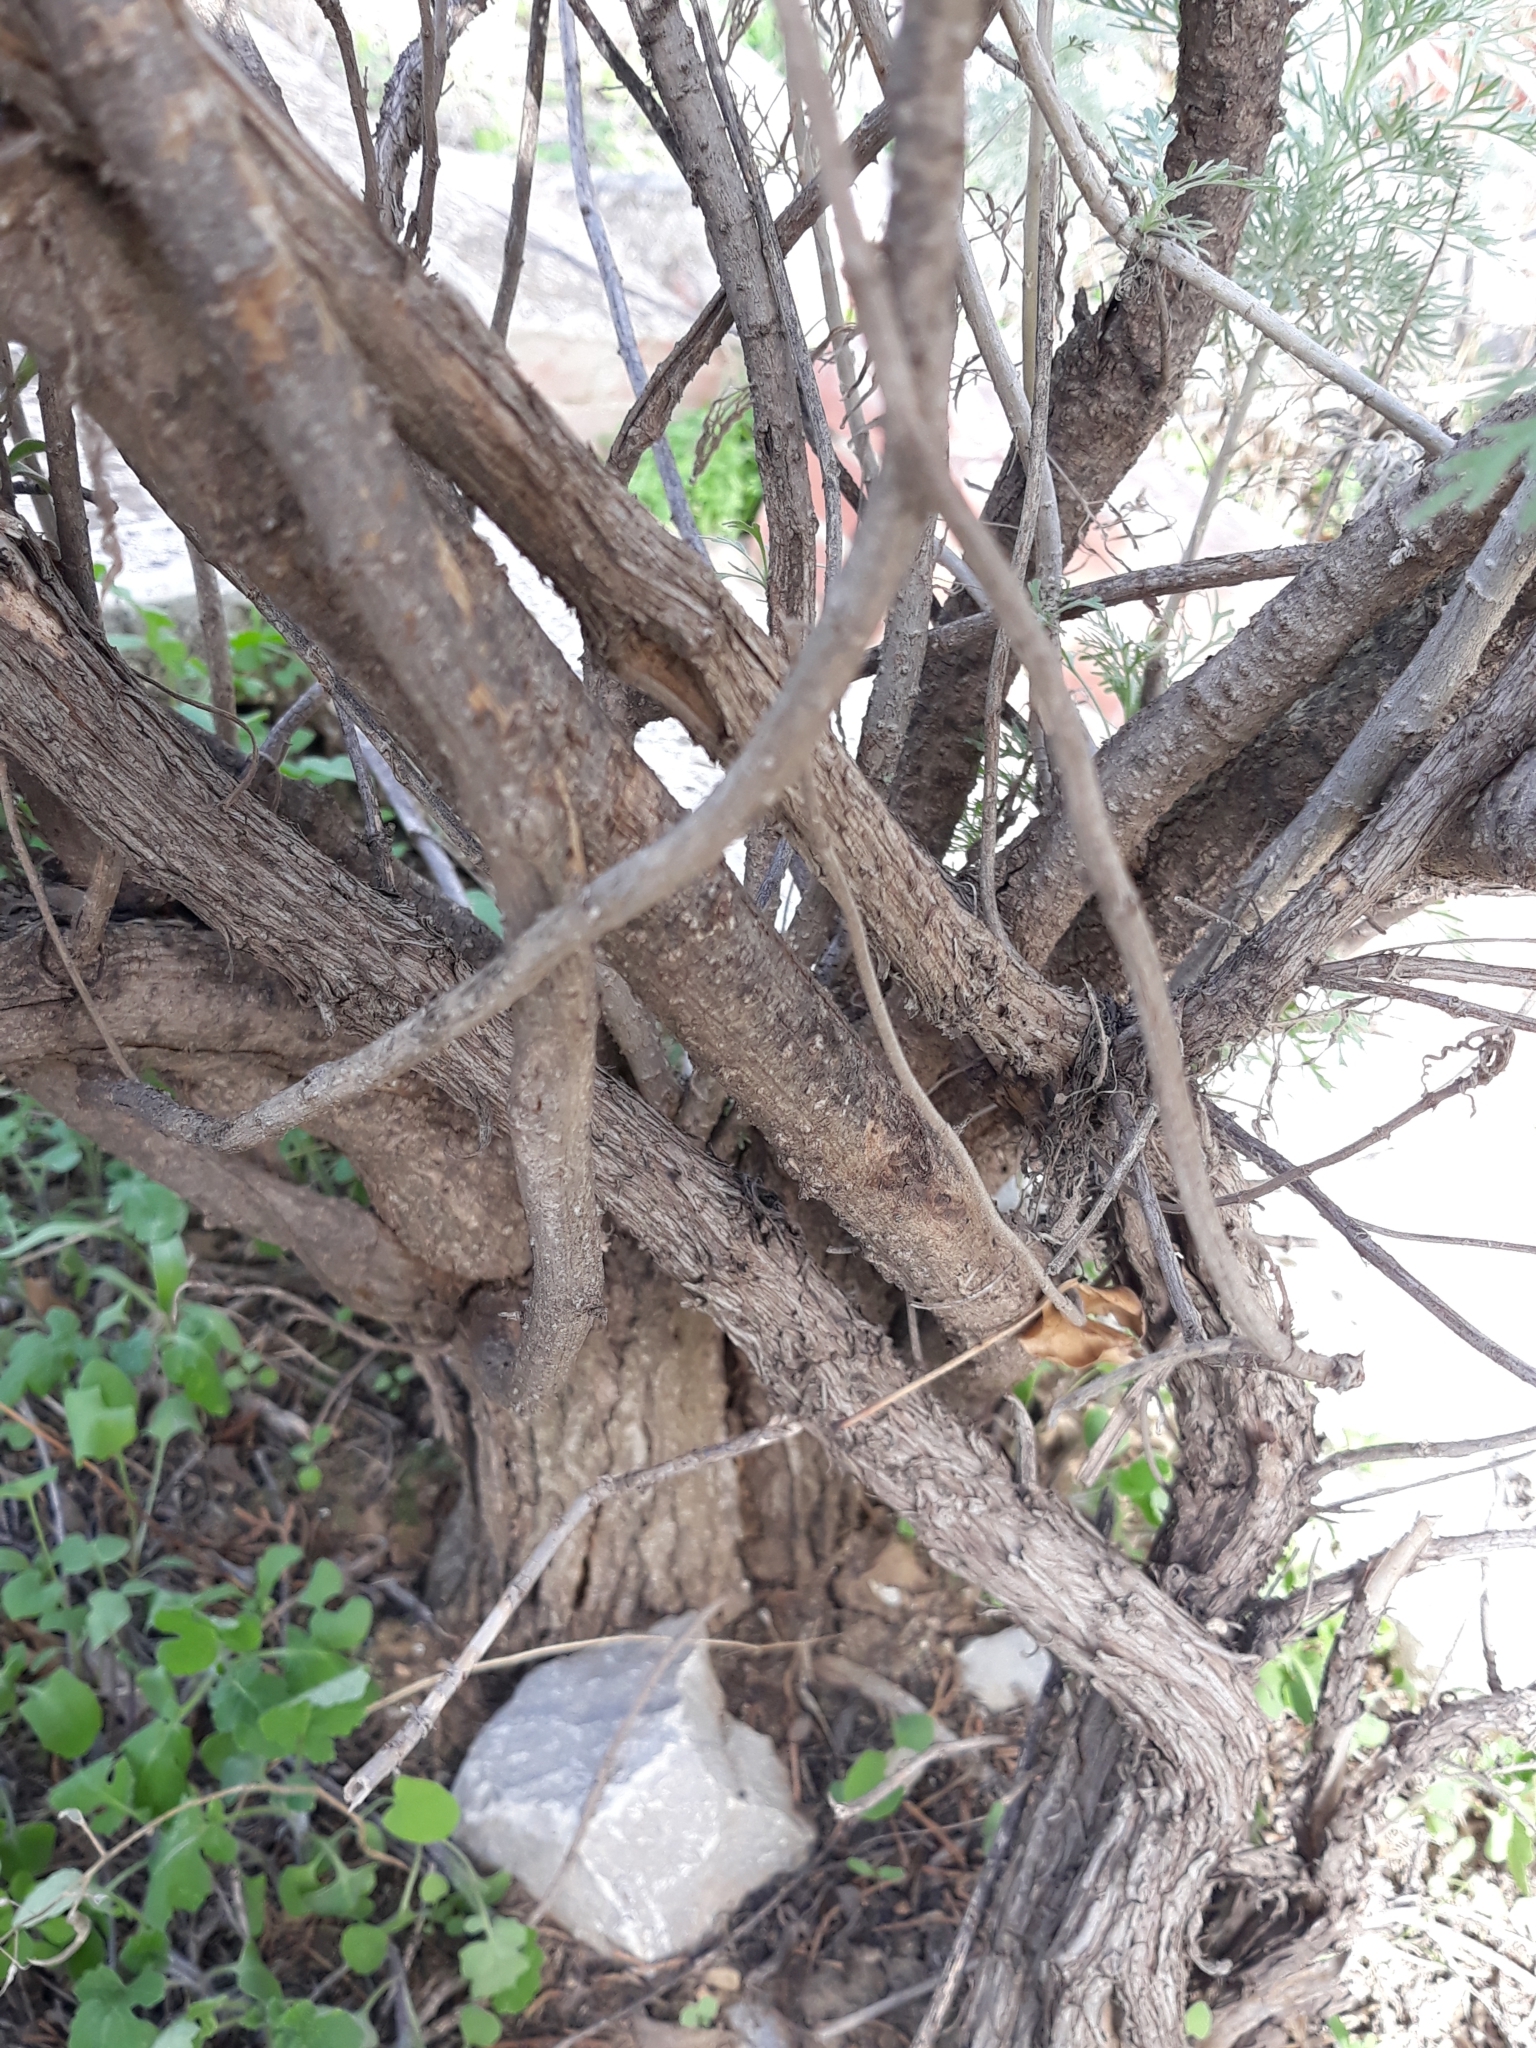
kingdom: Plantae
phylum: Tracheophyta
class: Magnoliopsida
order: Asterales
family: Asteraceae
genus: Artemisia
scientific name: Artemisia arborescens
